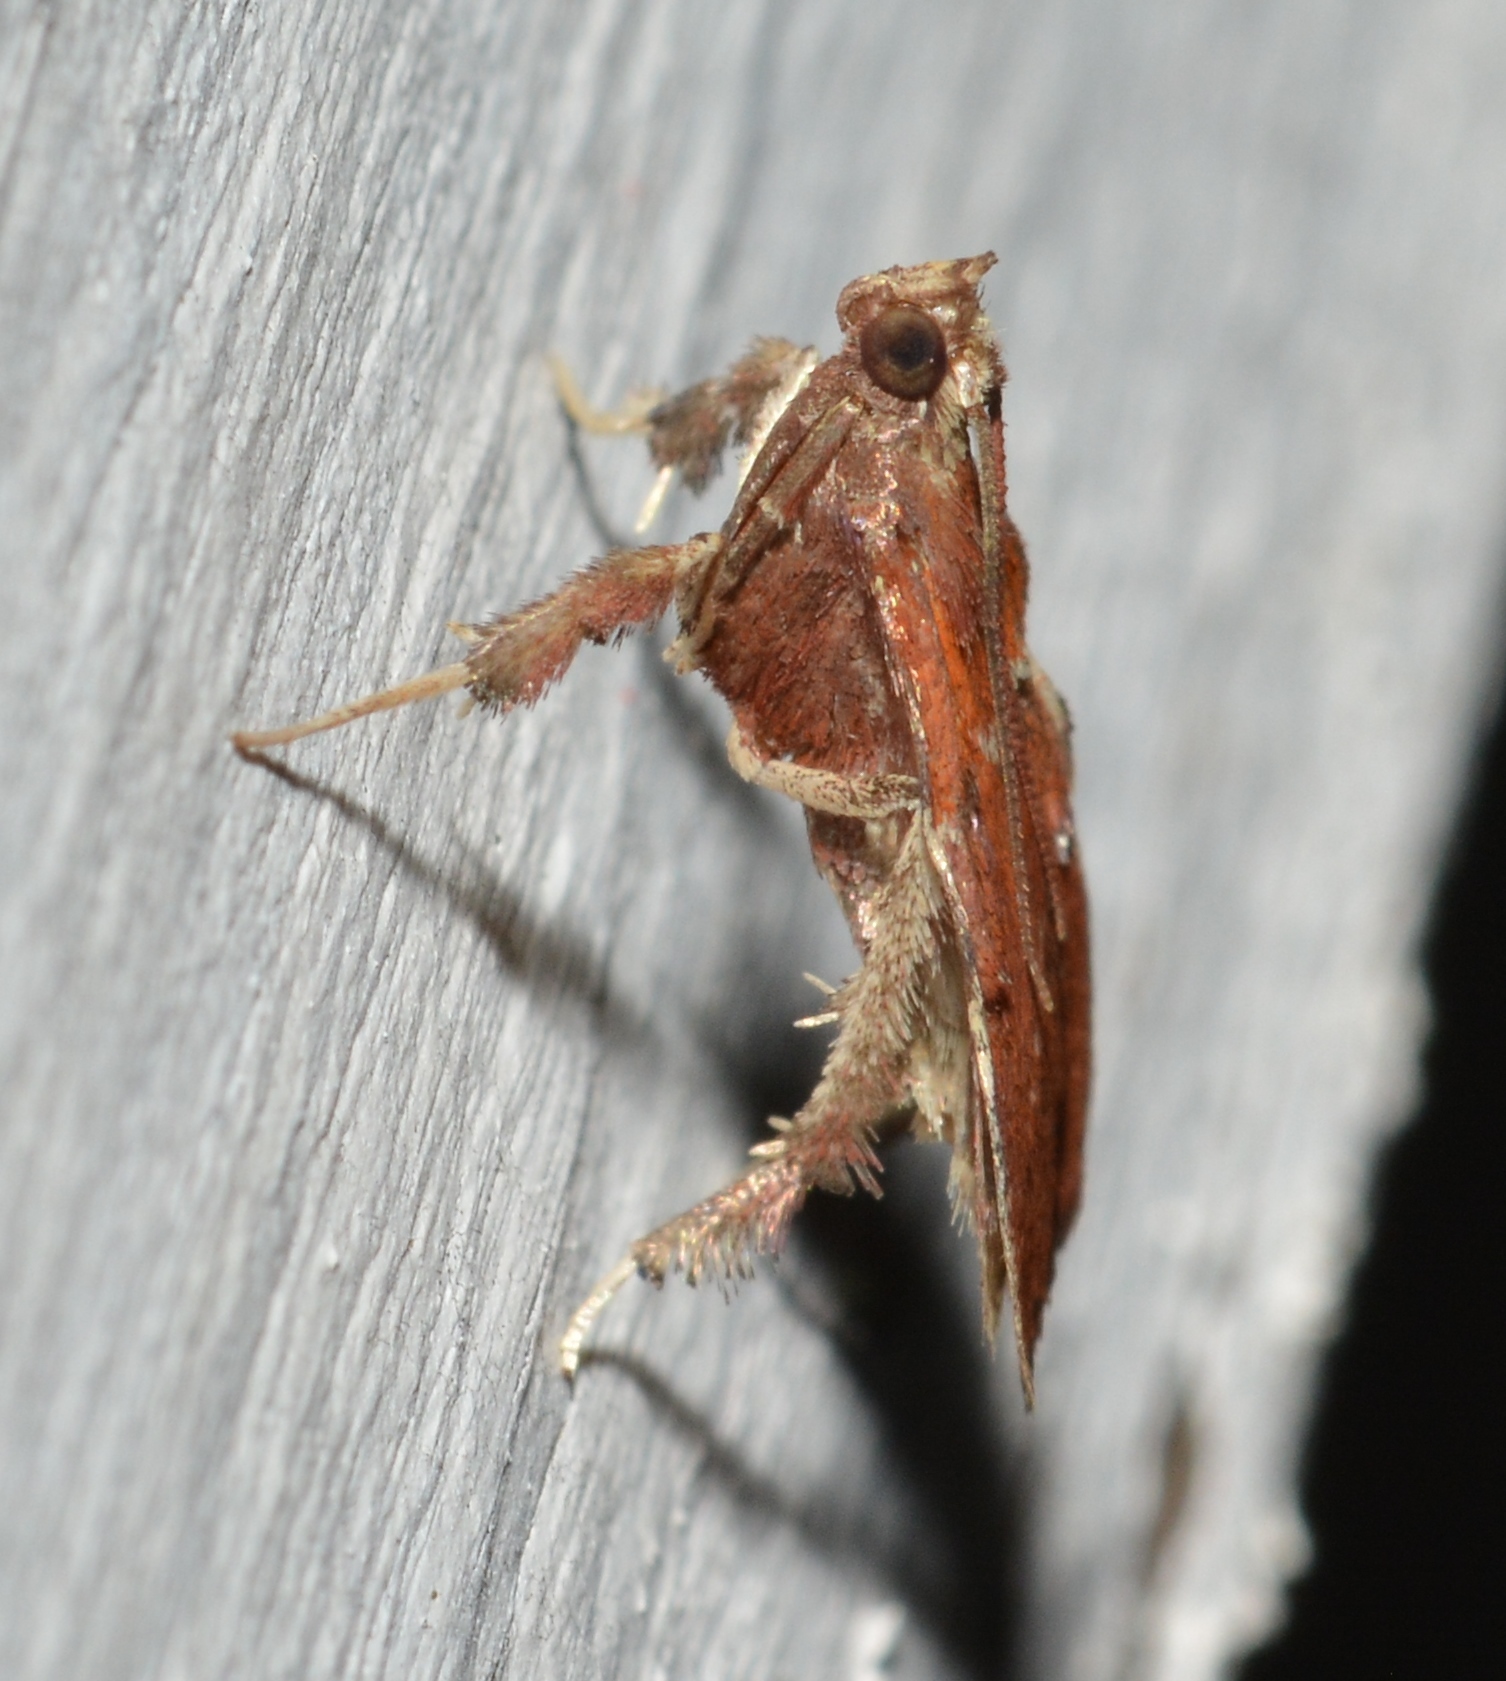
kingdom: Animalia
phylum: Arthropoda
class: Insecta
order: Lepidoptera
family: Pyralidae
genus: Galasa
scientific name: Galasa nigrinodis
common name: Boxwood leaftier moth
